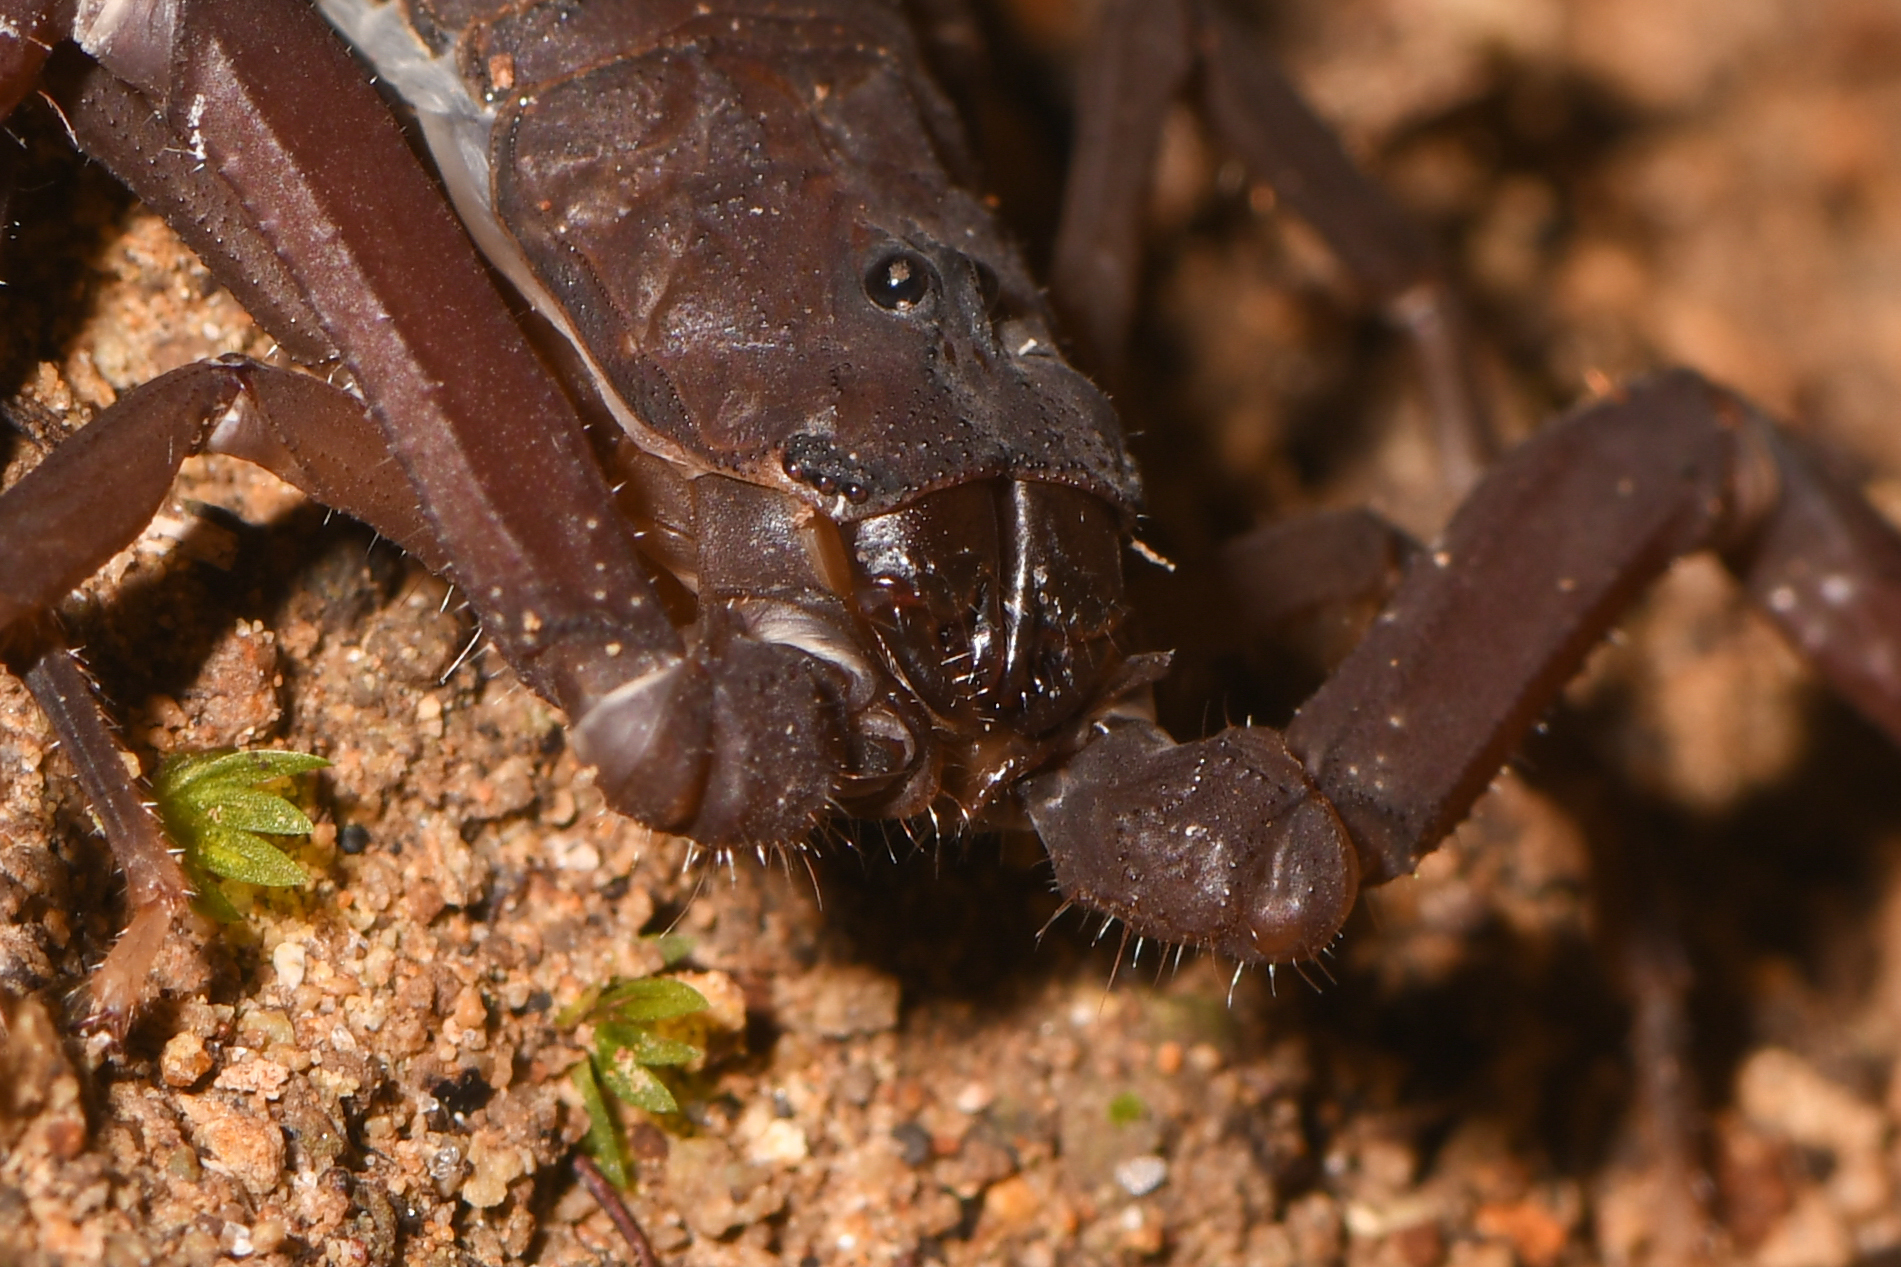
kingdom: Animalia
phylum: Arthropoda
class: Arachnida
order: Scorpiones
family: Buthidae
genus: Tityus
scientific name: Tityus dedoslargos
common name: Scorpions
